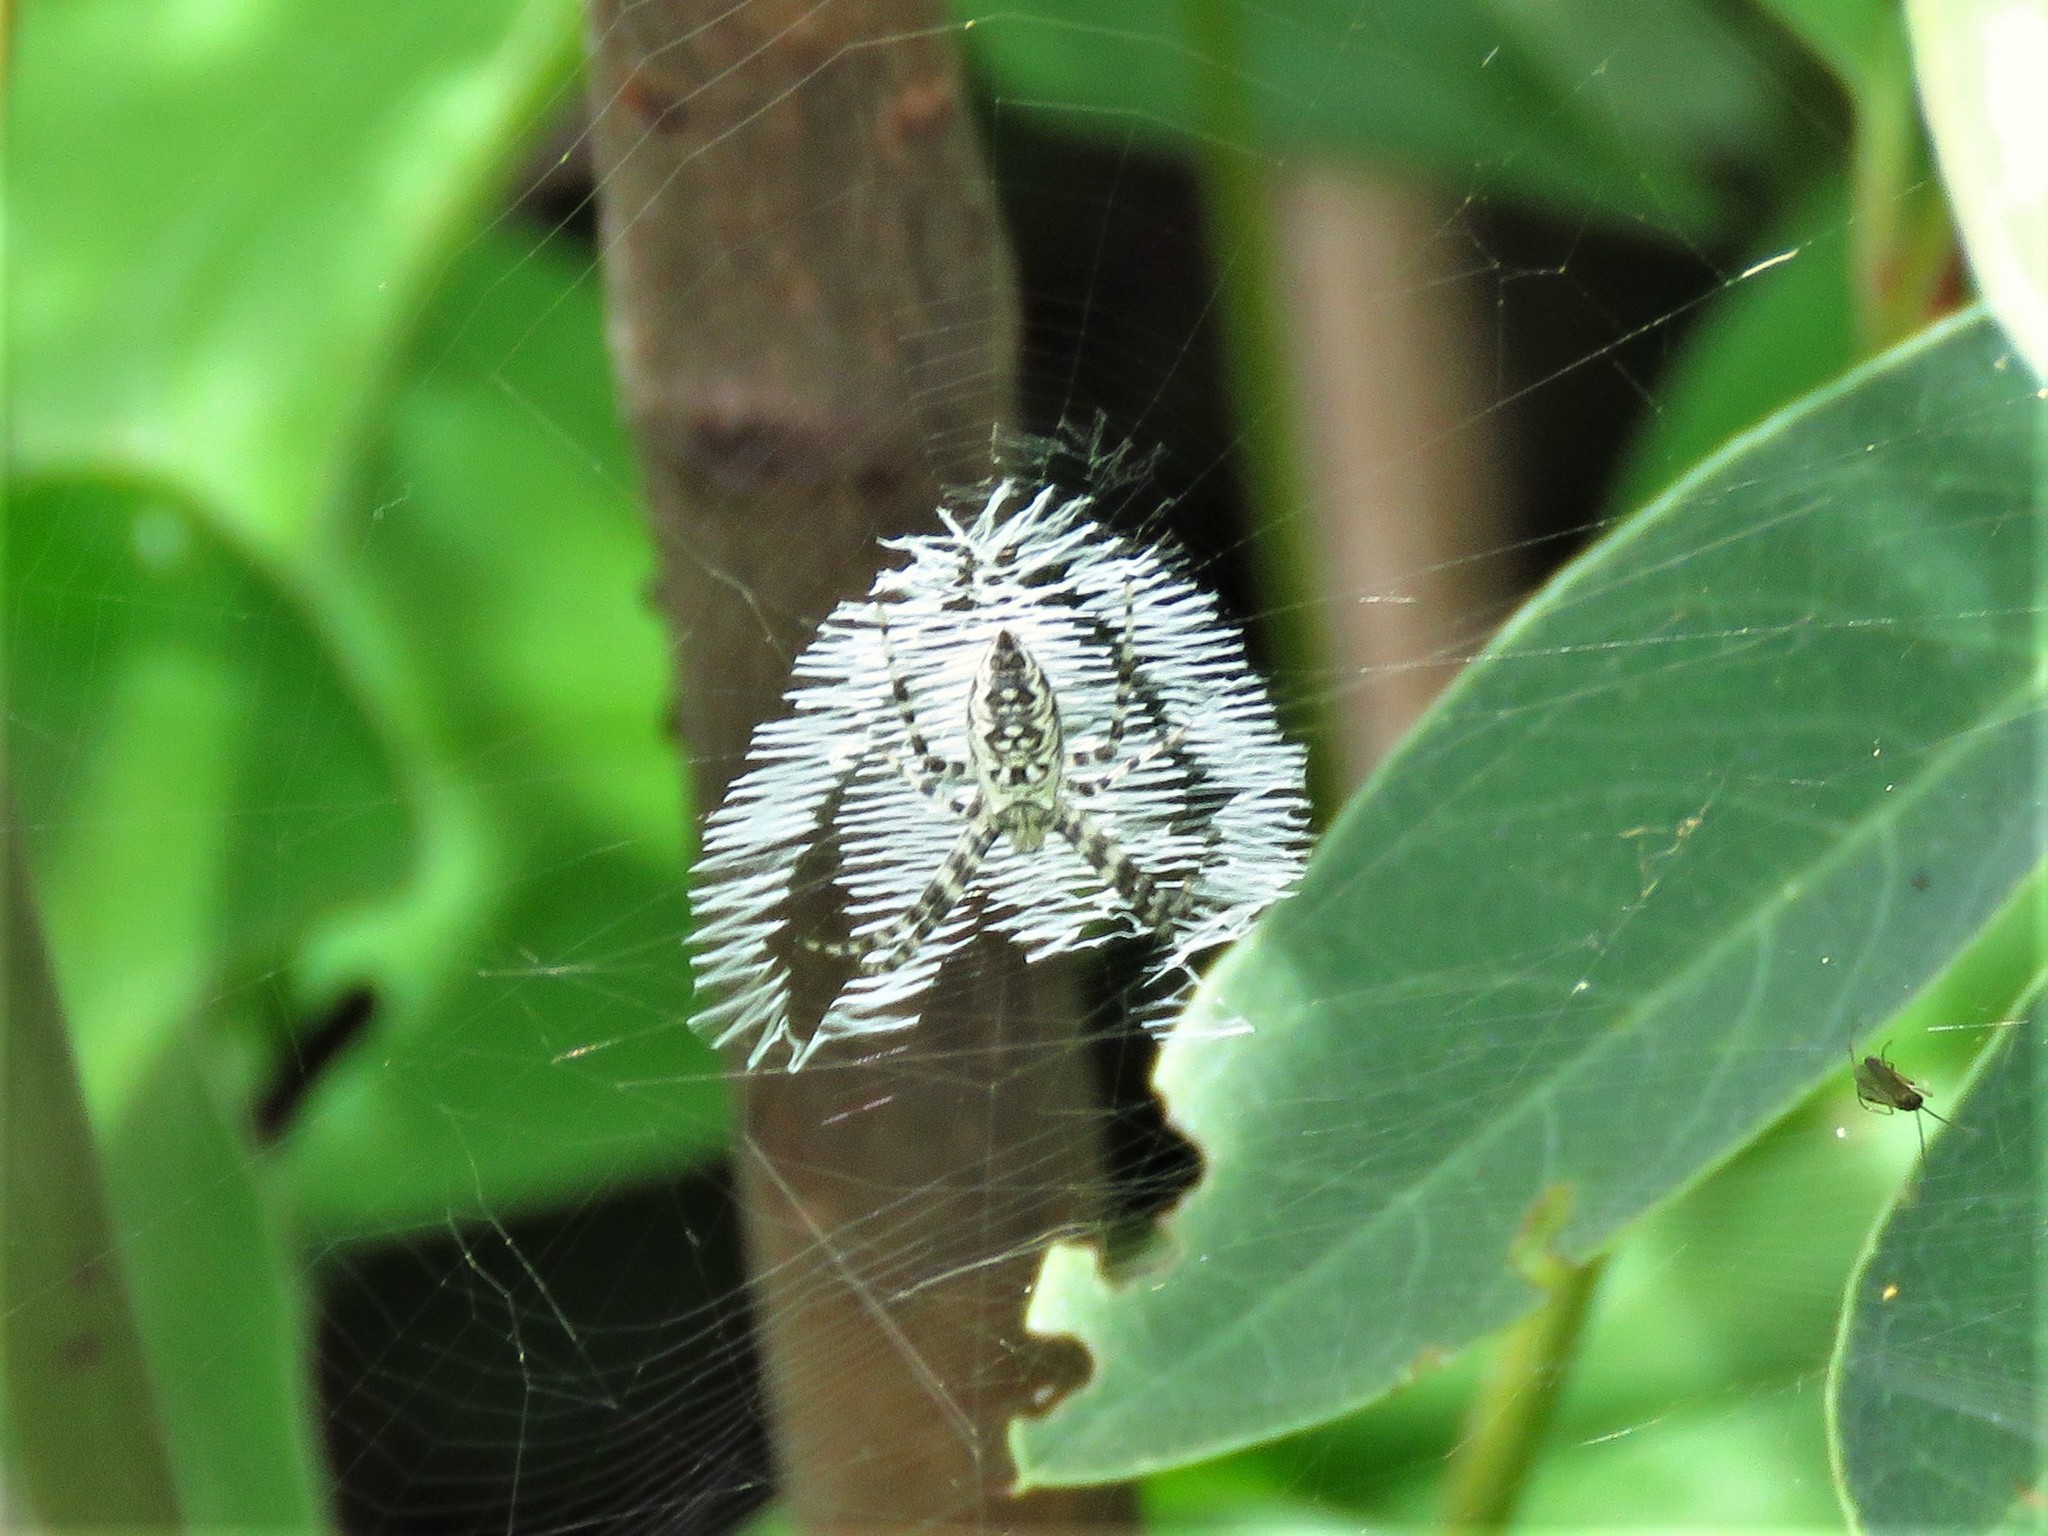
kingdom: Animalia
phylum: Arthropoda
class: Arachnida
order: Araneae
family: Araneidae
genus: Argiope
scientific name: Argiope aurantia
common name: Orb weavers
